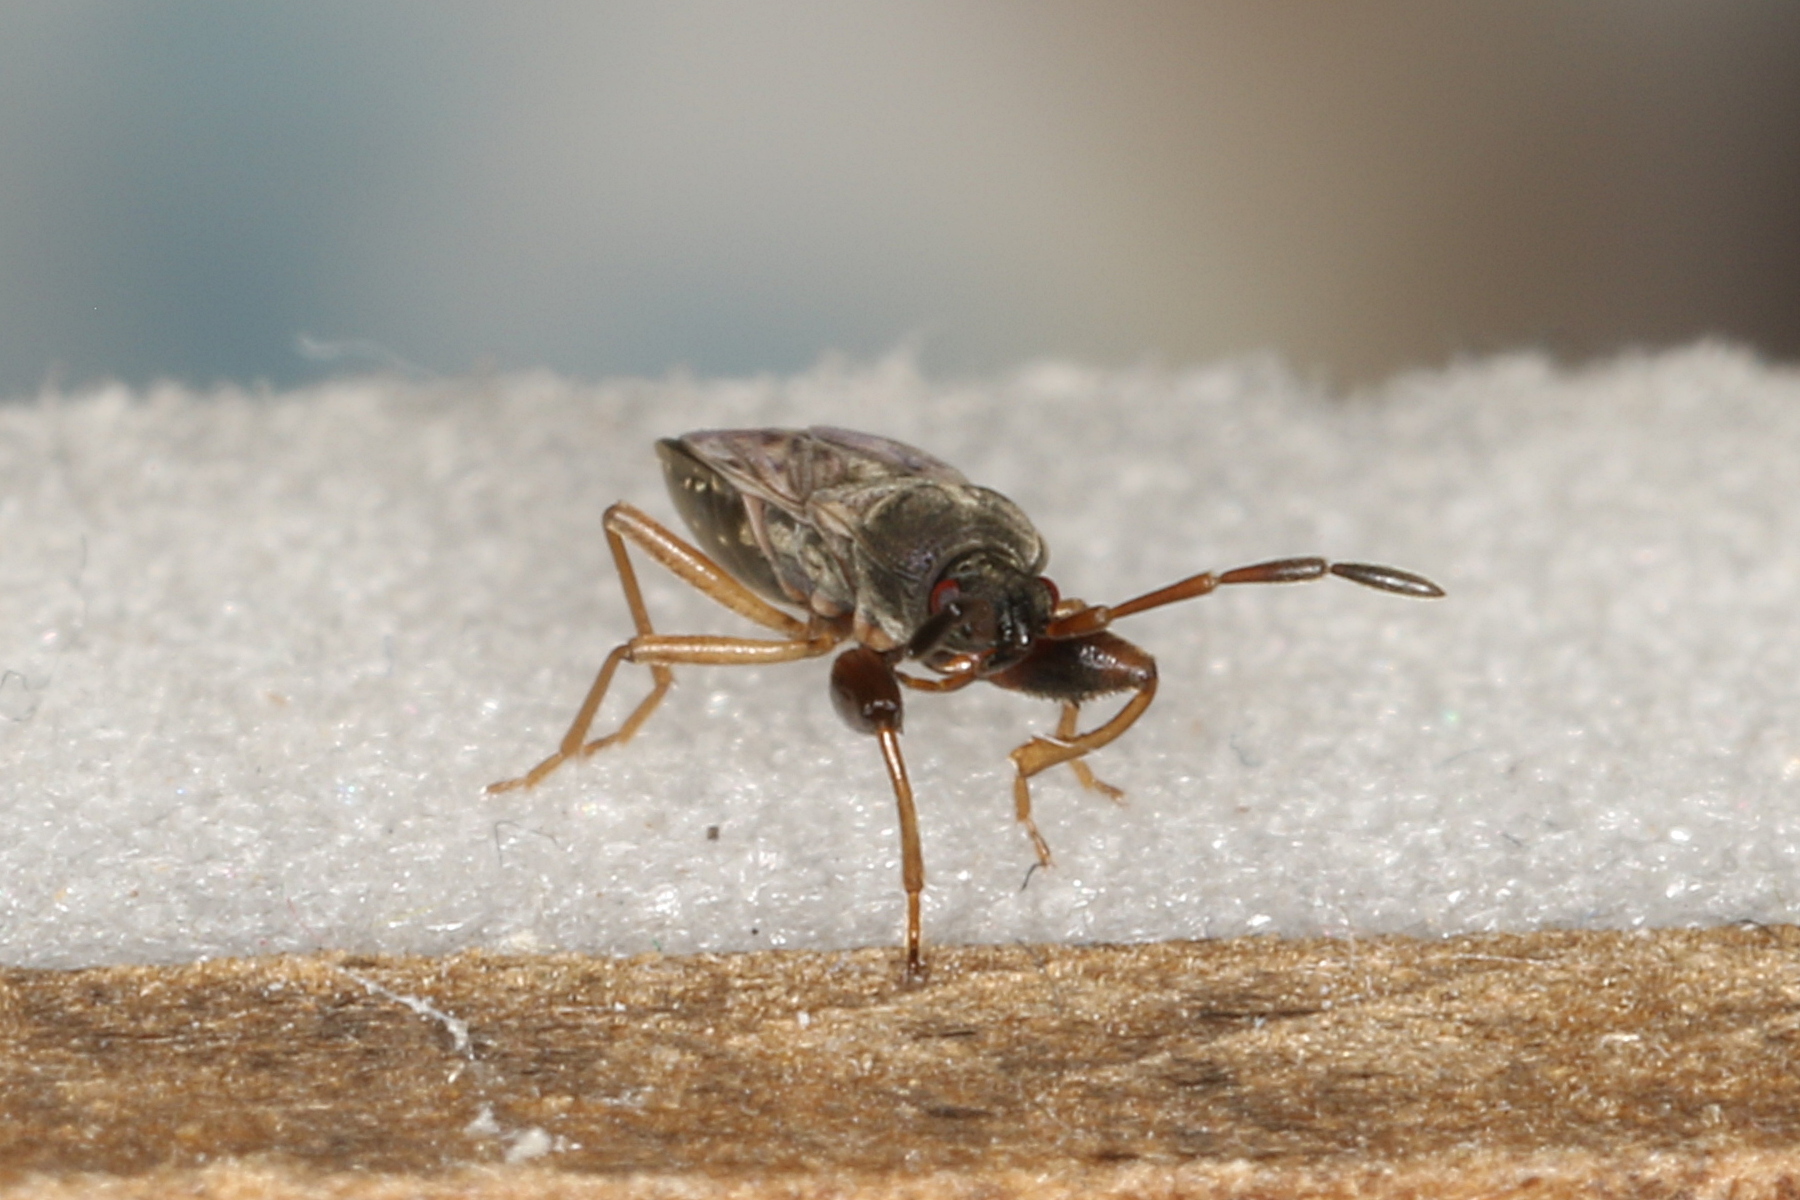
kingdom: Animalia
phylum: Arthropoda
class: Insecta
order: Hemiptera
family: Rhyparochromidae
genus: Scolopostethus
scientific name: Scolopostethus affinis
